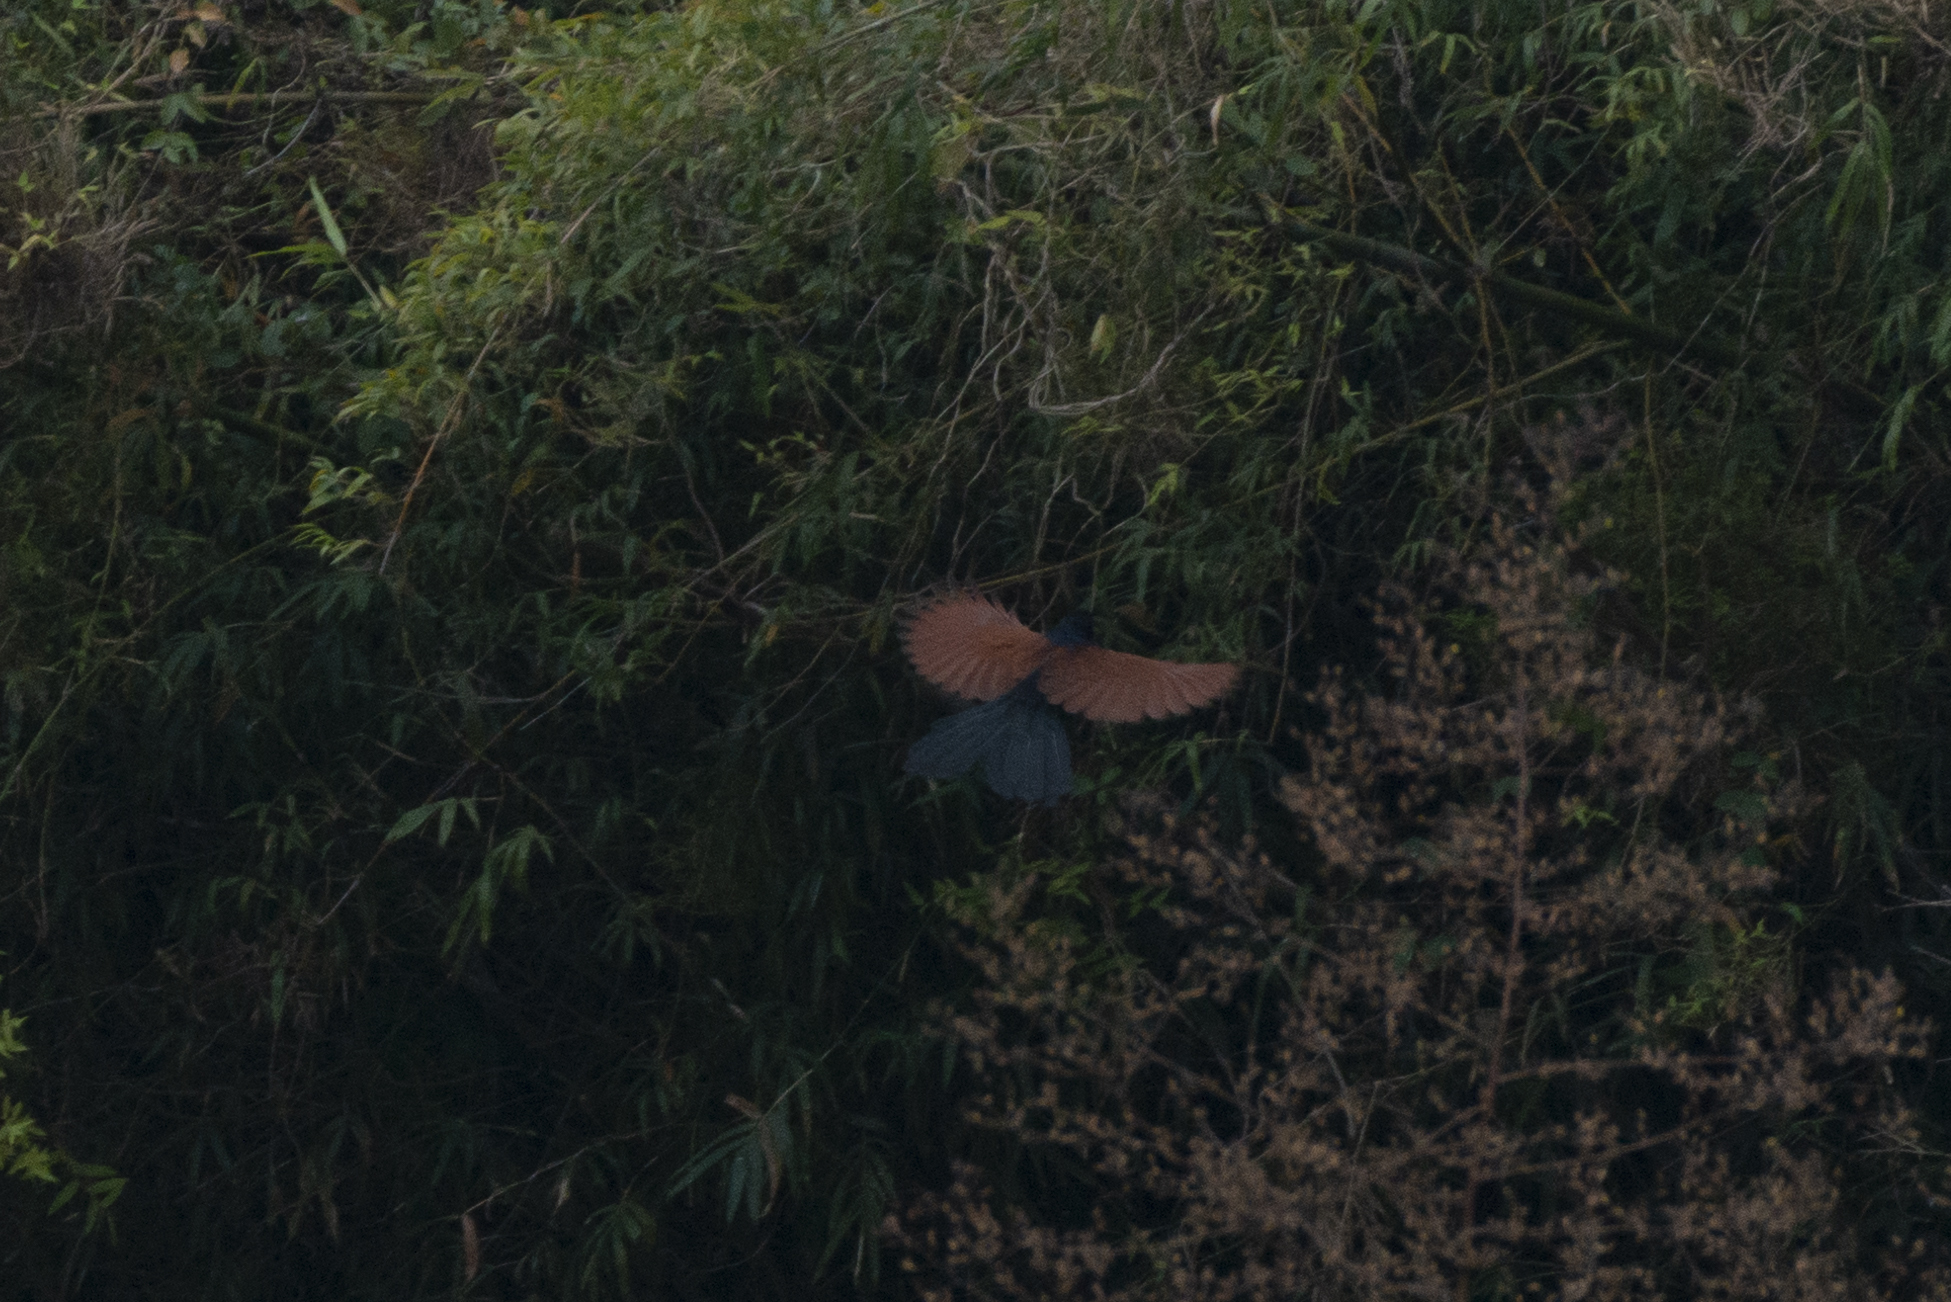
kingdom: Animalia
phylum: Chordata
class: Aves
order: Cuculiformes
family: Cuculidae
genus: Centropus
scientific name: Centropus sinensis
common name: Greater coucal
